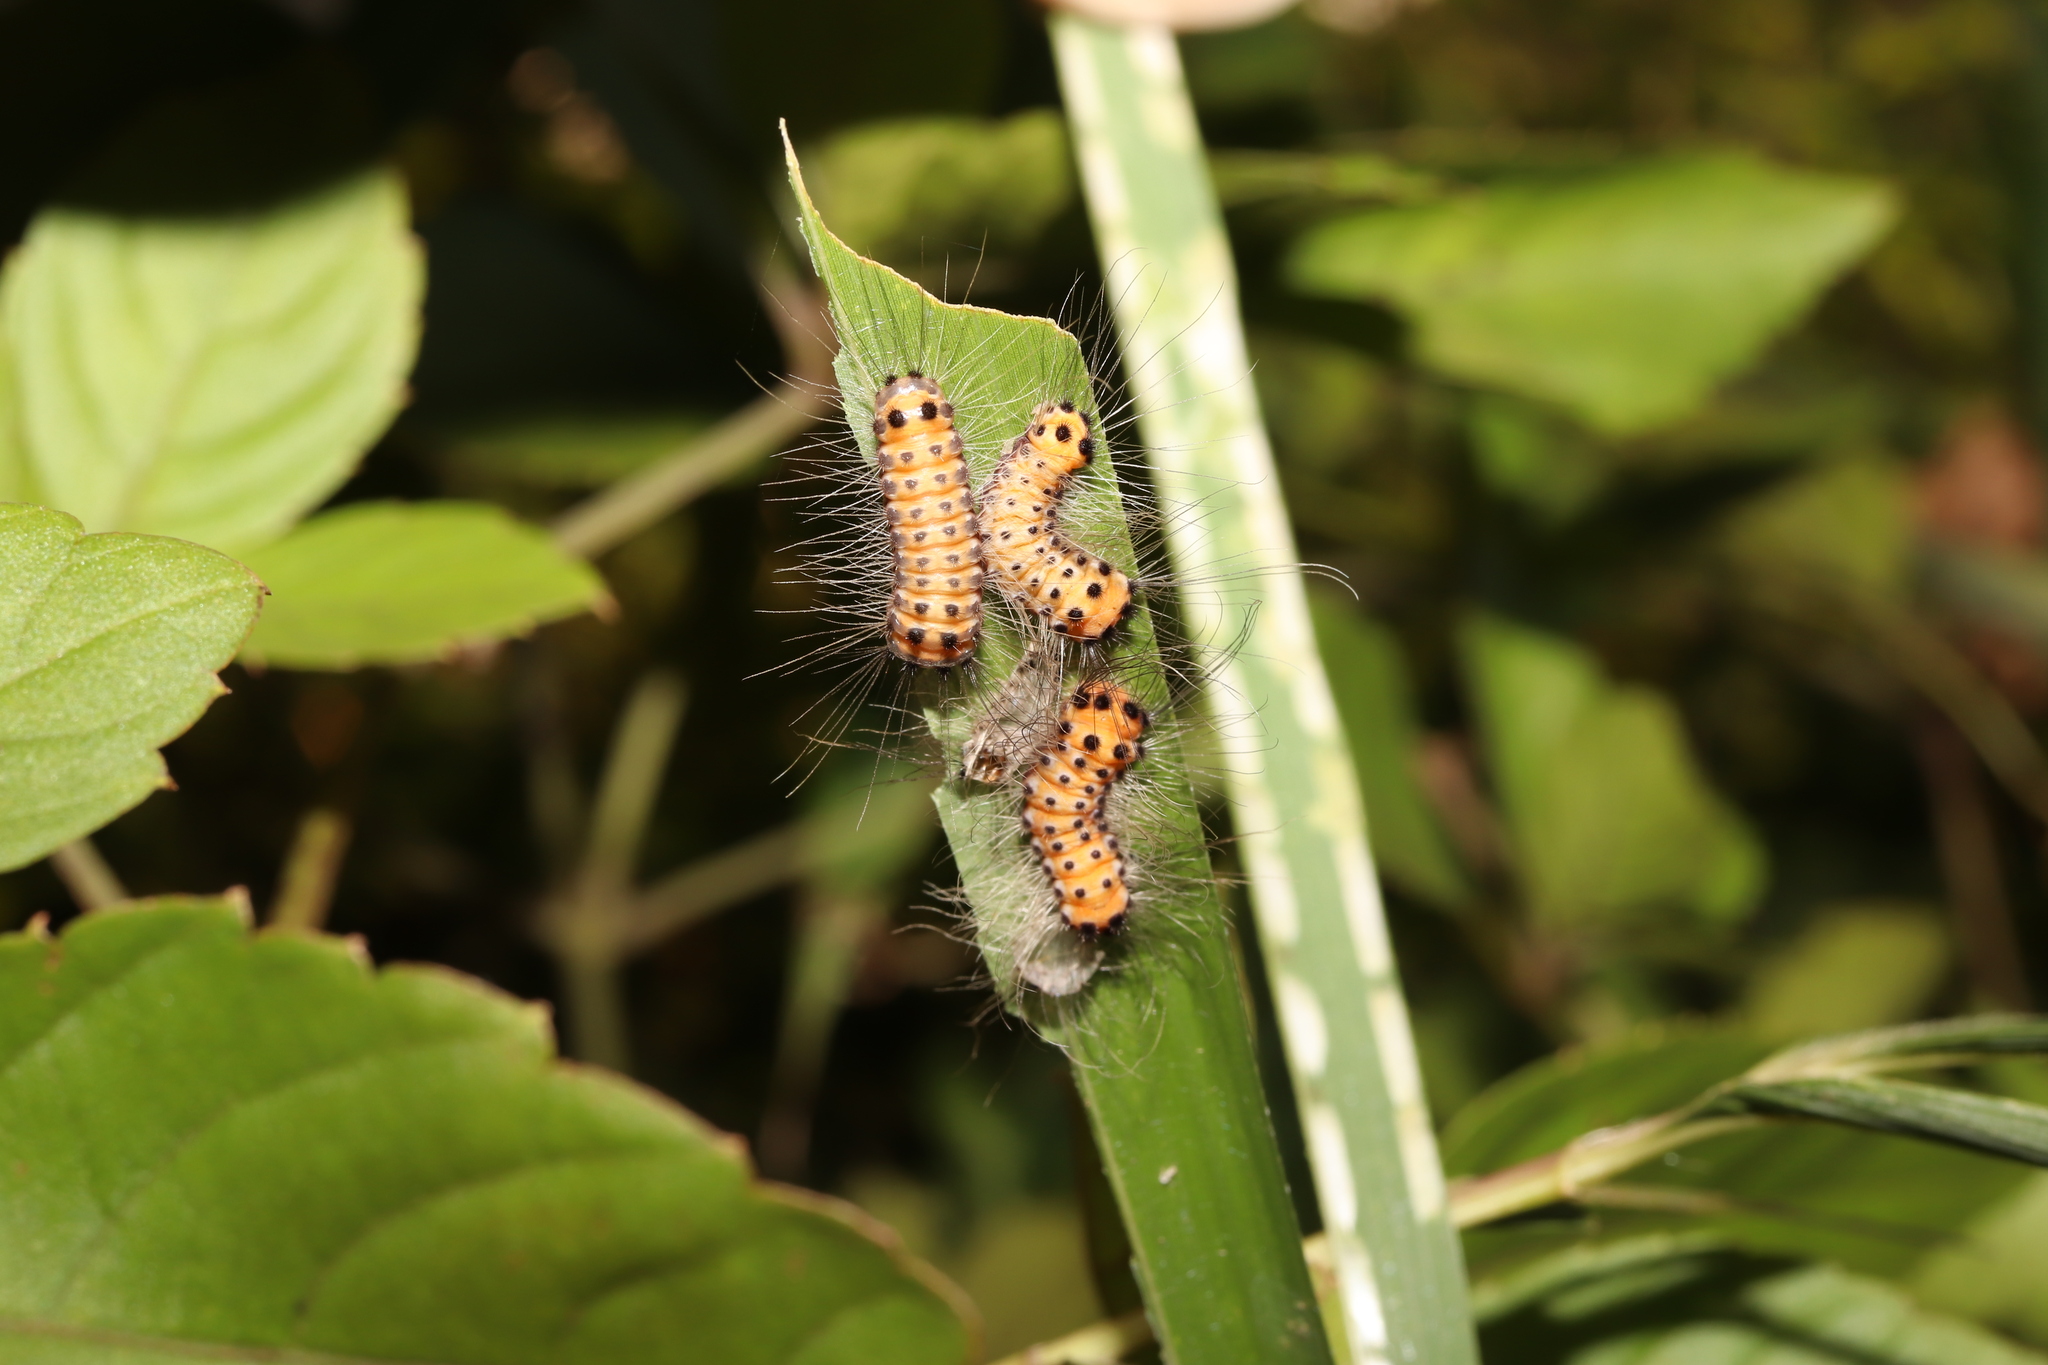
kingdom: Animalia
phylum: Arthropoda
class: Insecta
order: Lepidoptera
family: Zygaenidae
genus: Artona
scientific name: Artona martini
